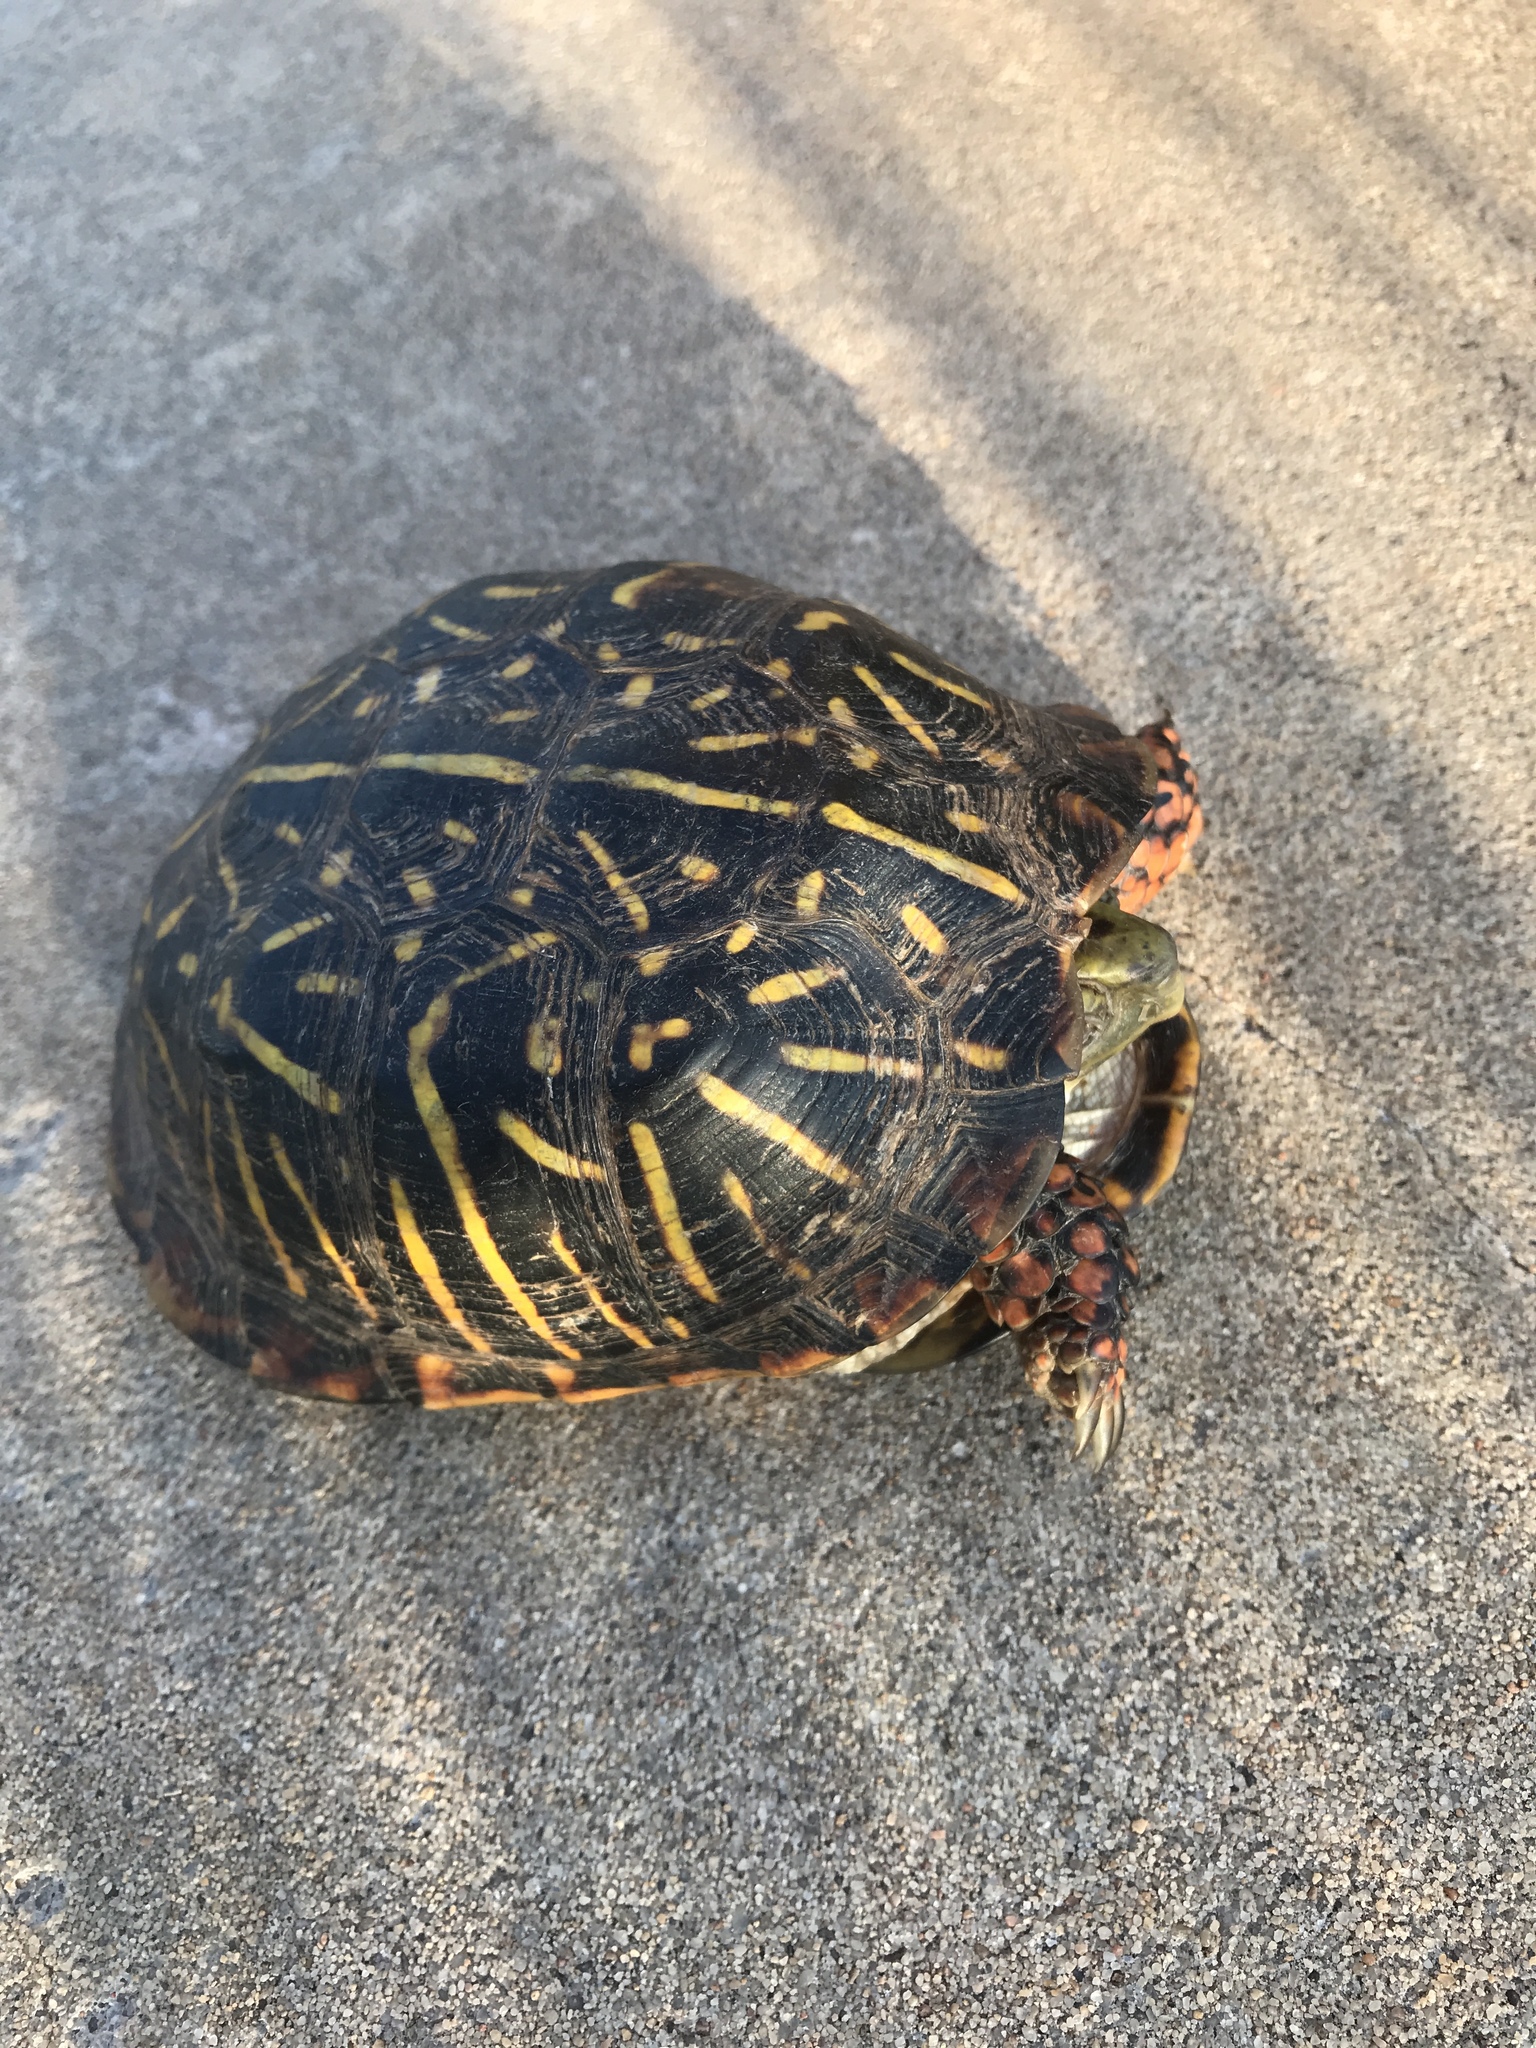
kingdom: Animalia
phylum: Chordata
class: Testudines
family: Emydidae
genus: Terrapene
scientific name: Terrapene ornata
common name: Western box turtle
